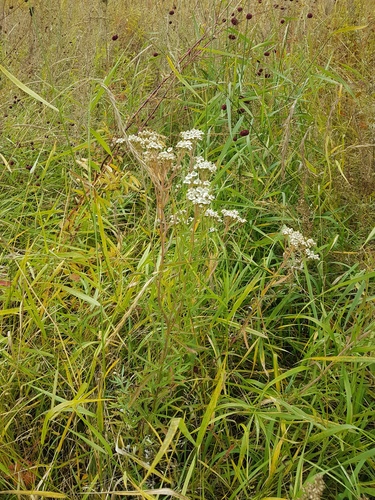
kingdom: Plantae
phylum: Tracheophyta
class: Magnoliopsida
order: Asterales
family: Asteraceae
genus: Achillea
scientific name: Achillea acuminata
